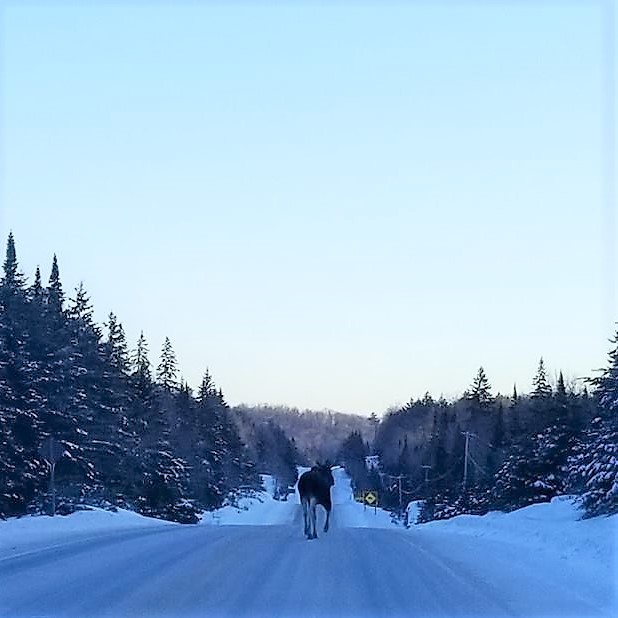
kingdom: Animalia
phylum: Chordata
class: Mammalia
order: Artiodactyla
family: Cervidae
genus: Alces
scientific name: Alces alces
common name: Moose
